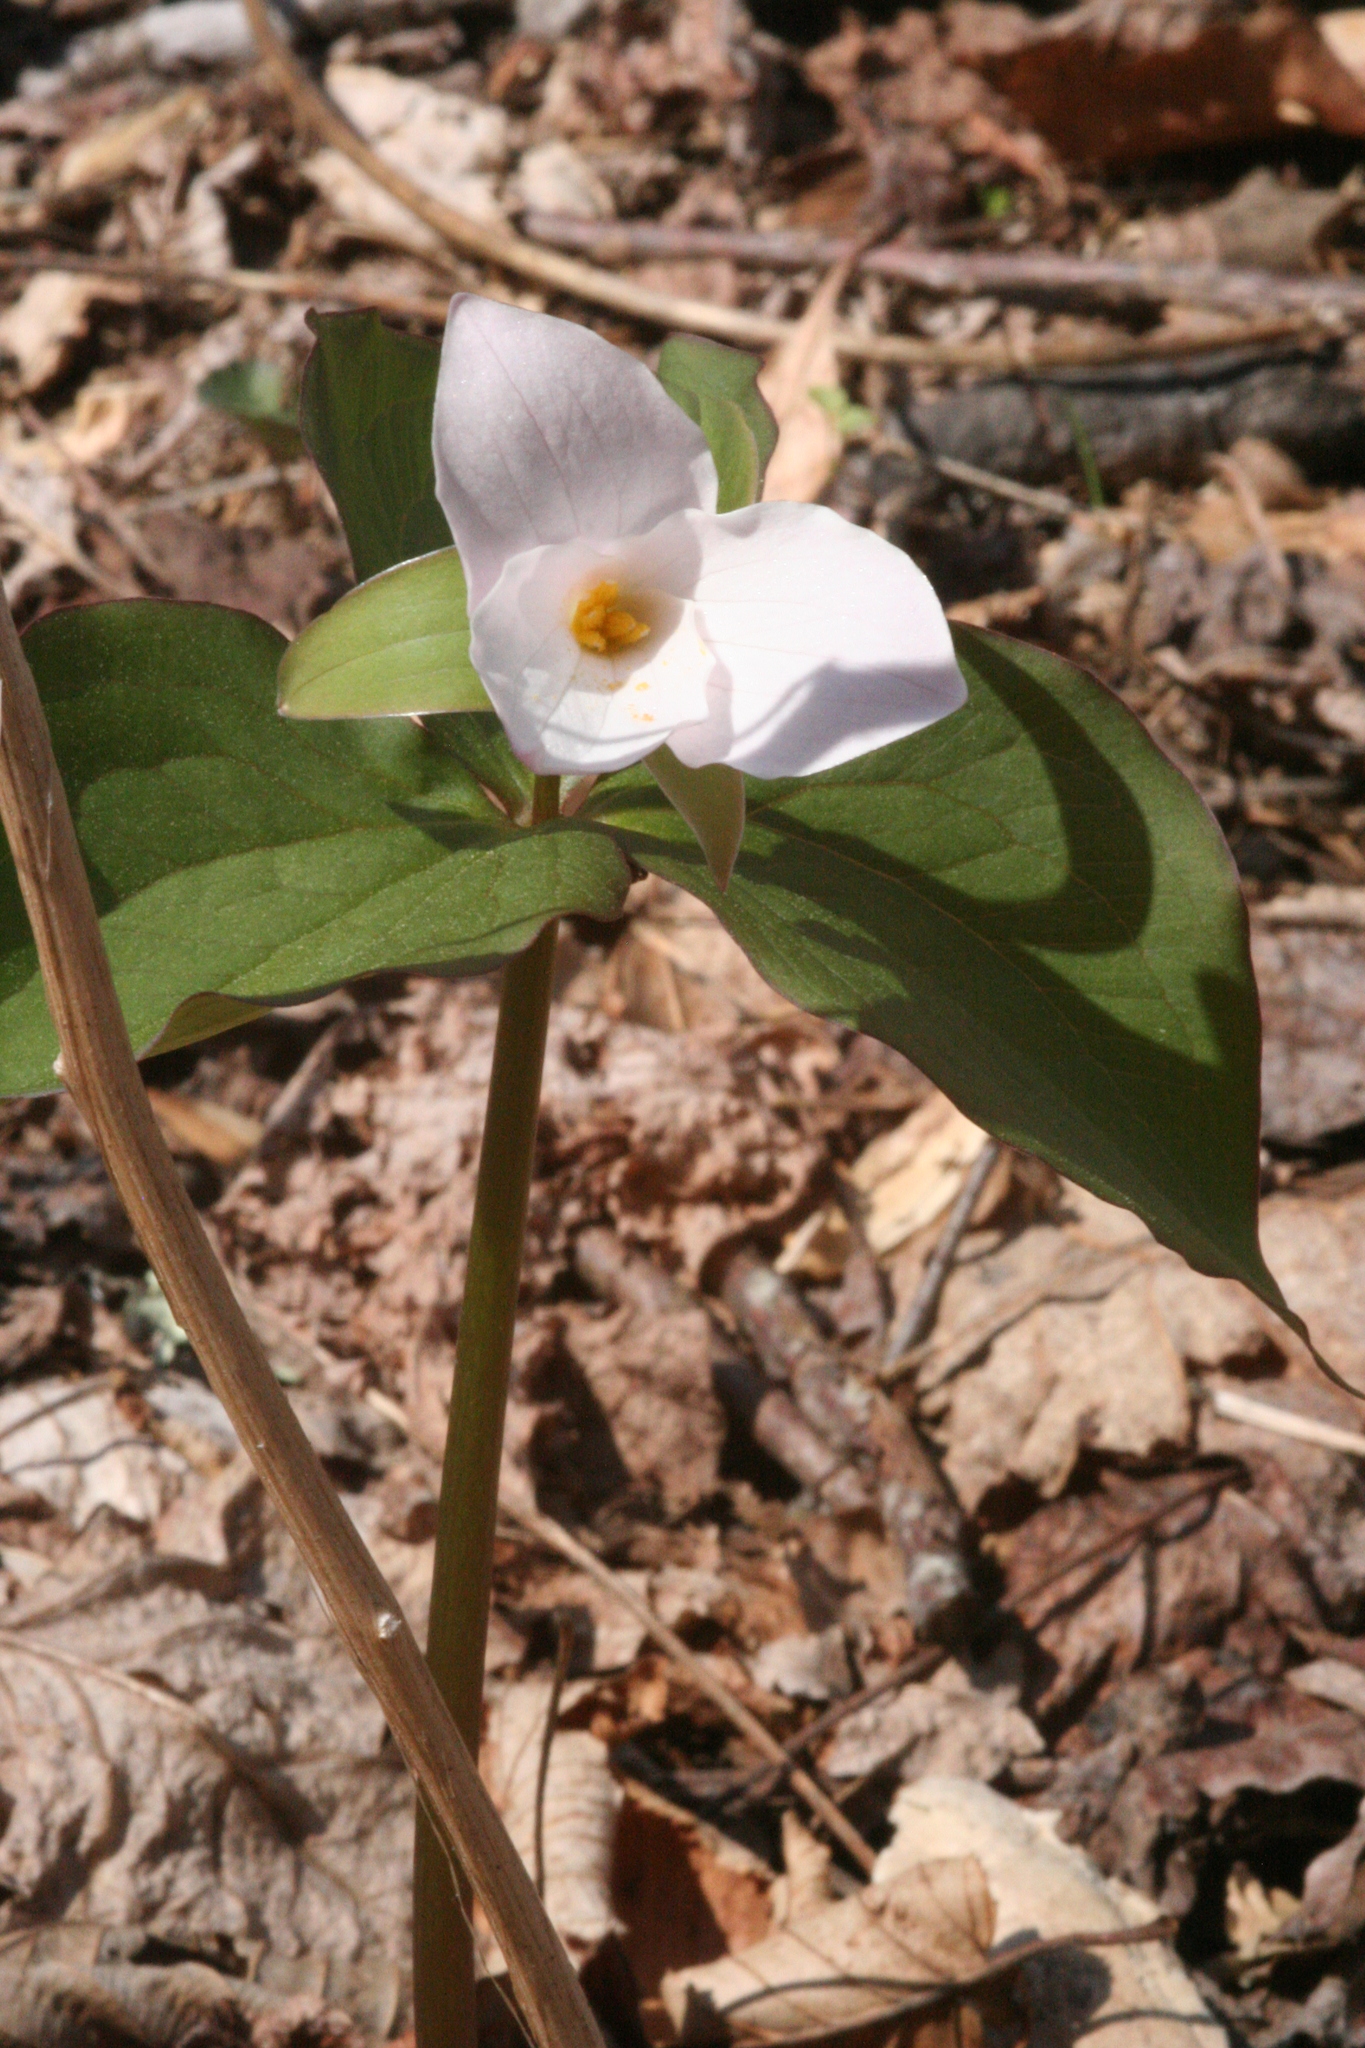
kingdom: Plantae
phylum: Tracheophyta
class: Liliopsida
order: Liliales
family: Melanthiaceae
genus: Trillium
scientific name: Trillium grandiflorum
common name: Great white trillium
